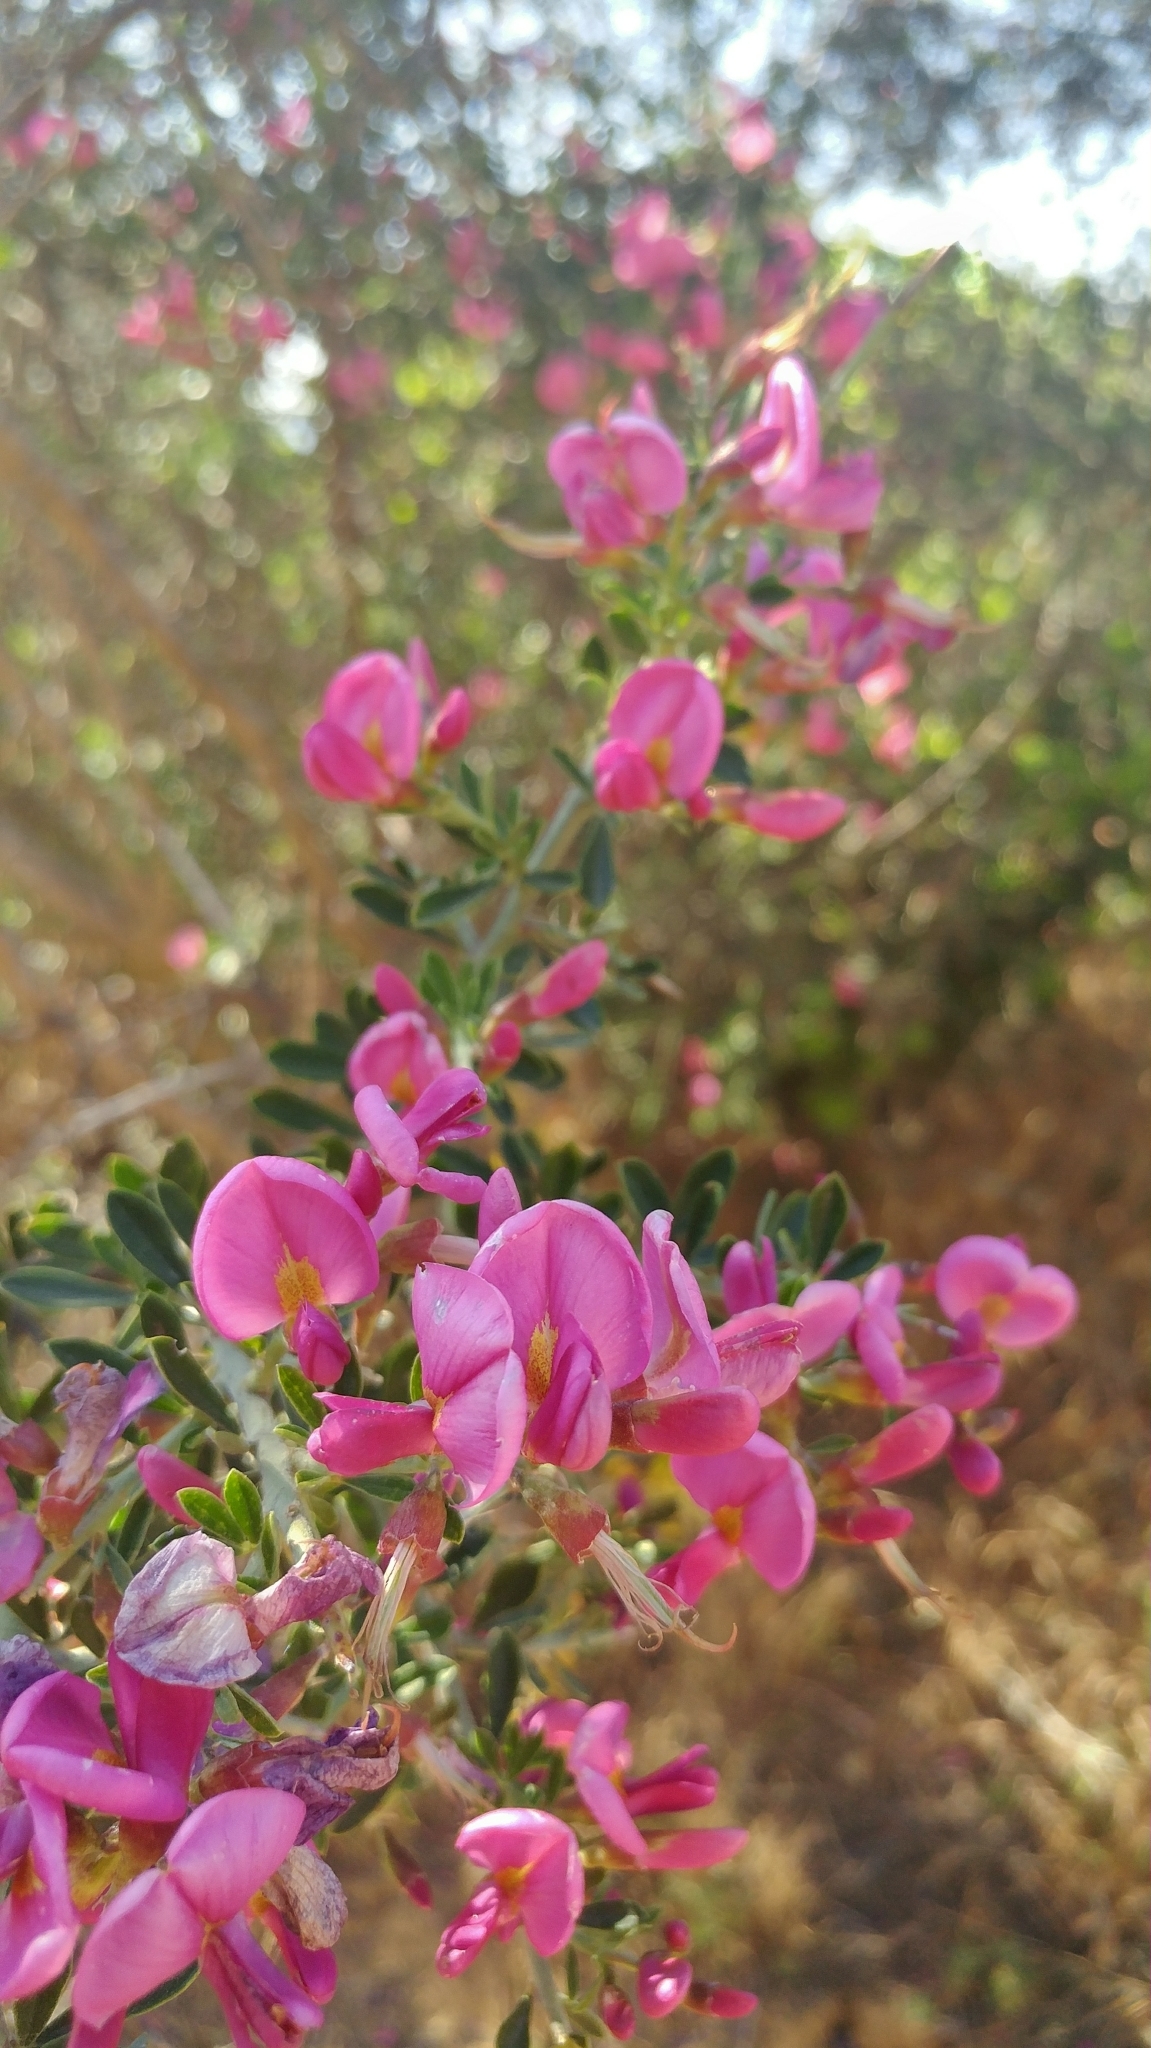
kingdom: Plantae
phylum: Tracheophyta
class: Magnoliopsida
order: Fabales
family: Fabaceae
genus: Pickeringia
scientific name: Pickeringia montana
